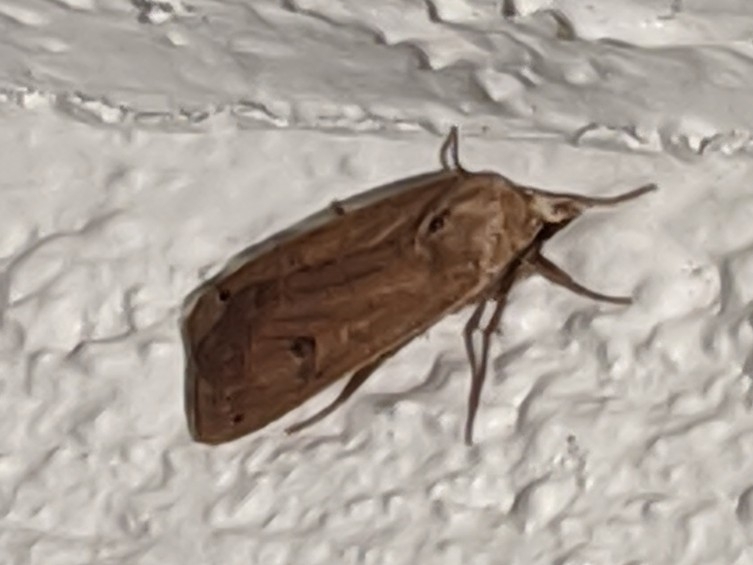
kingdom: Animalia
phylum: Arthropoda
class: Insecta
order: Lepidoptera
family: Noctuidae
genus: Noctua
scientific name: Noctua pronuba
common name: Large yellow underwing
